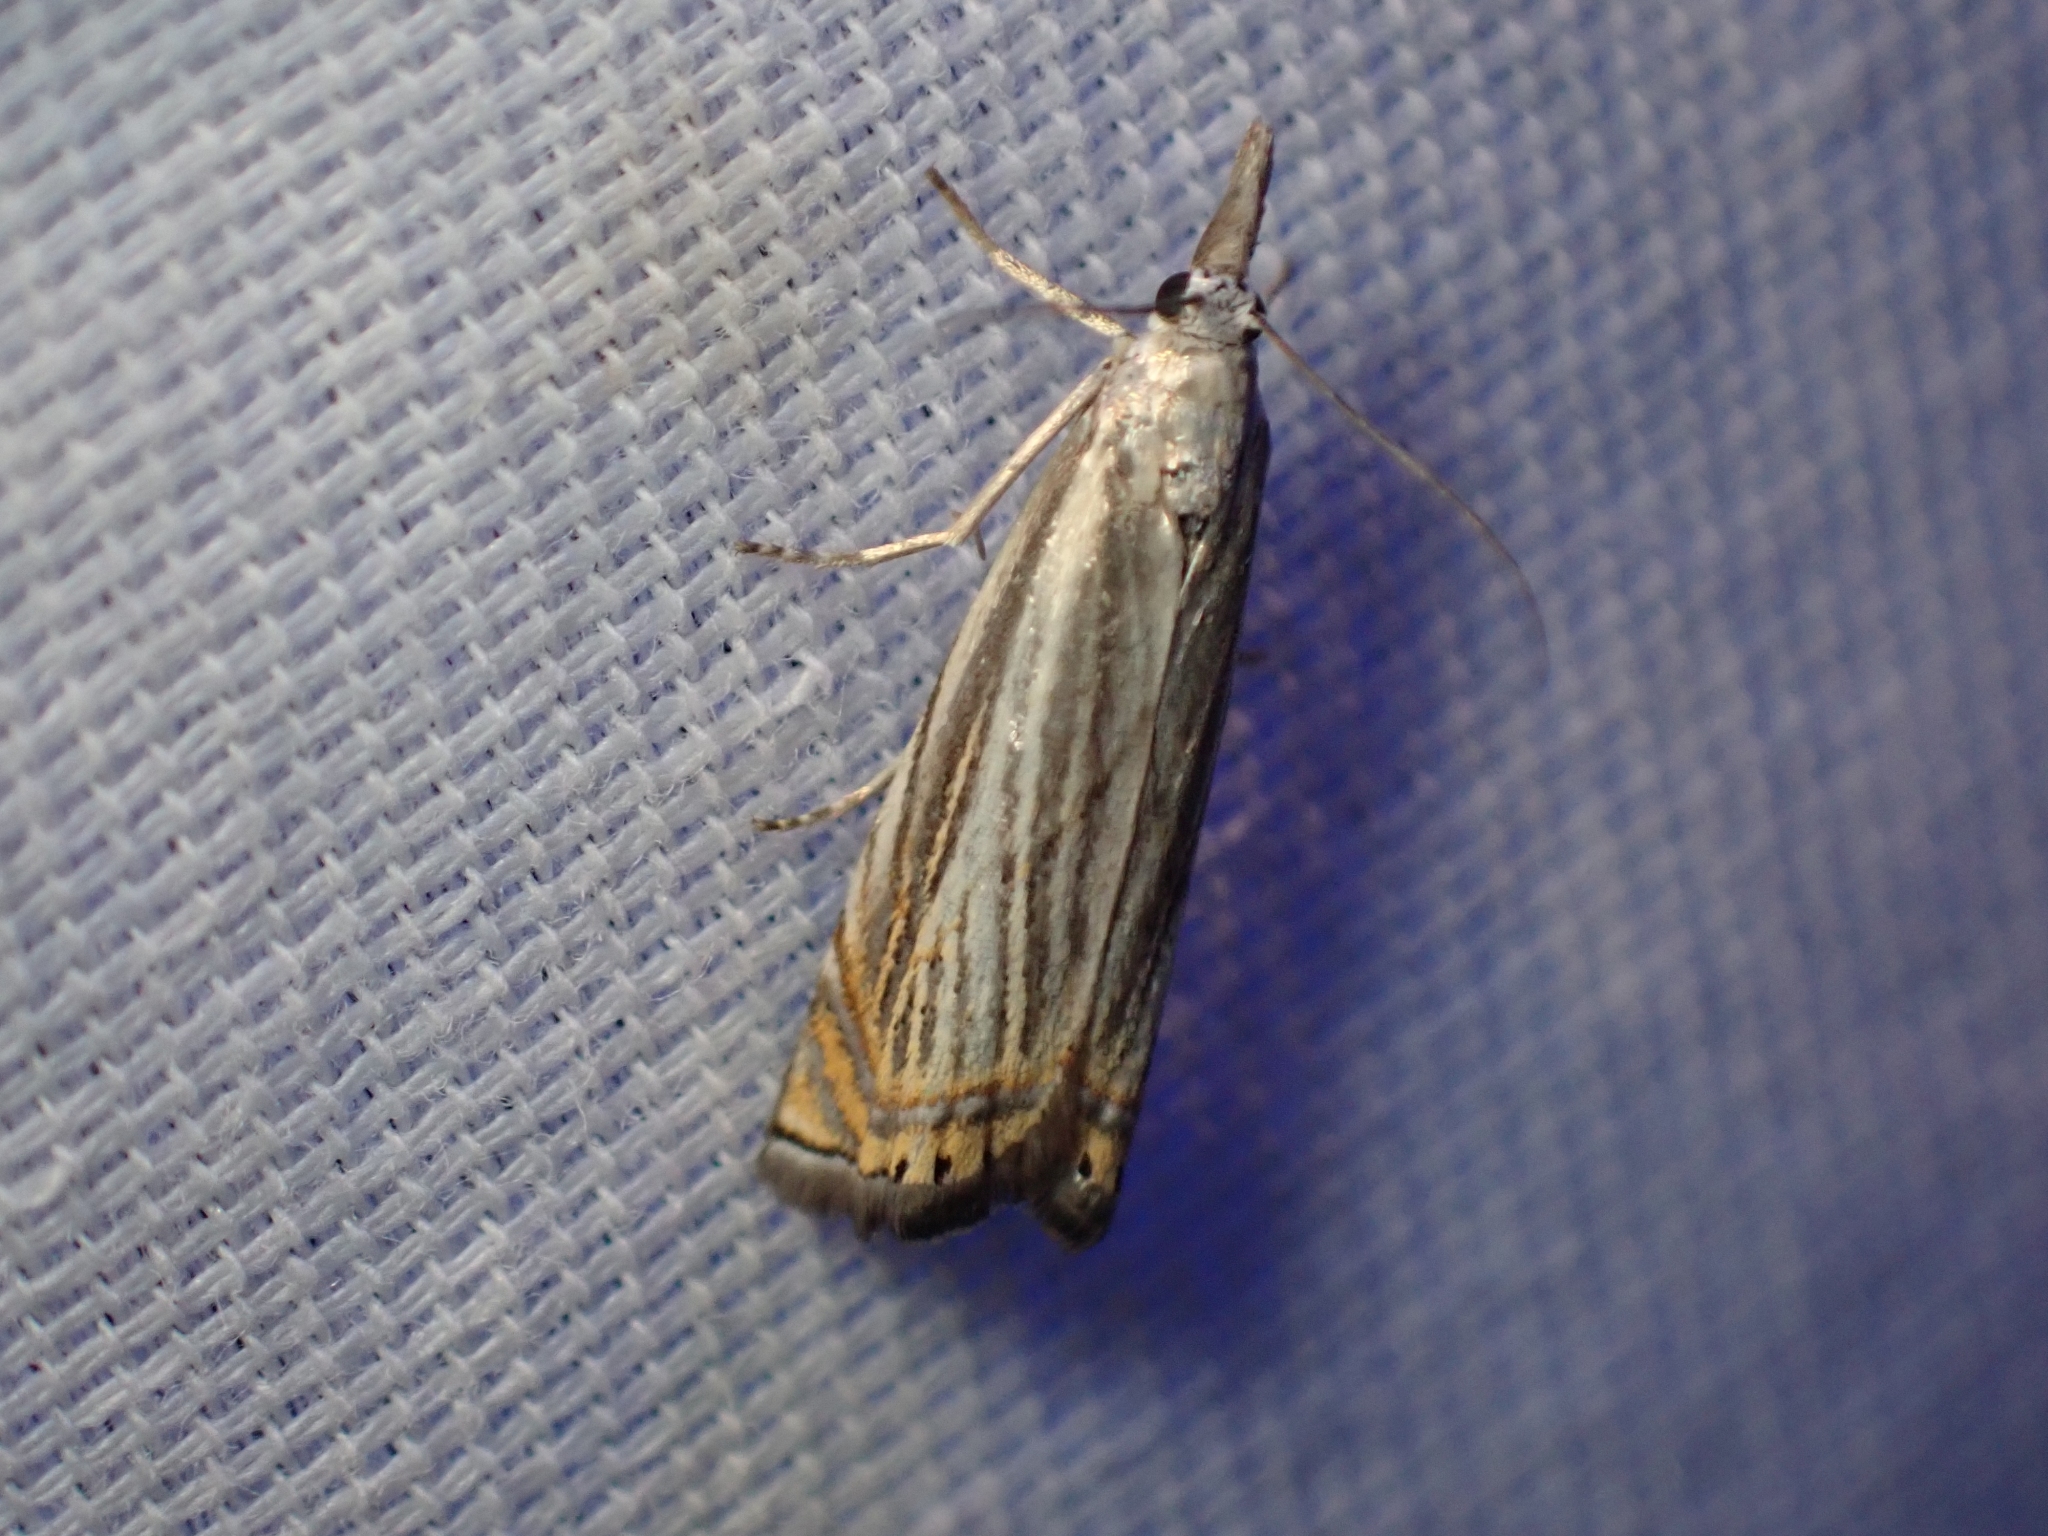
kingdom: Animalia
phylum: Arthropoda
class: Insecta
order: Lepidoptera
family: Crambidae
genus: Chrysoteuchia
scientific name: Chrysoteuchia topiarius
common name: Topiary grass-veneer
